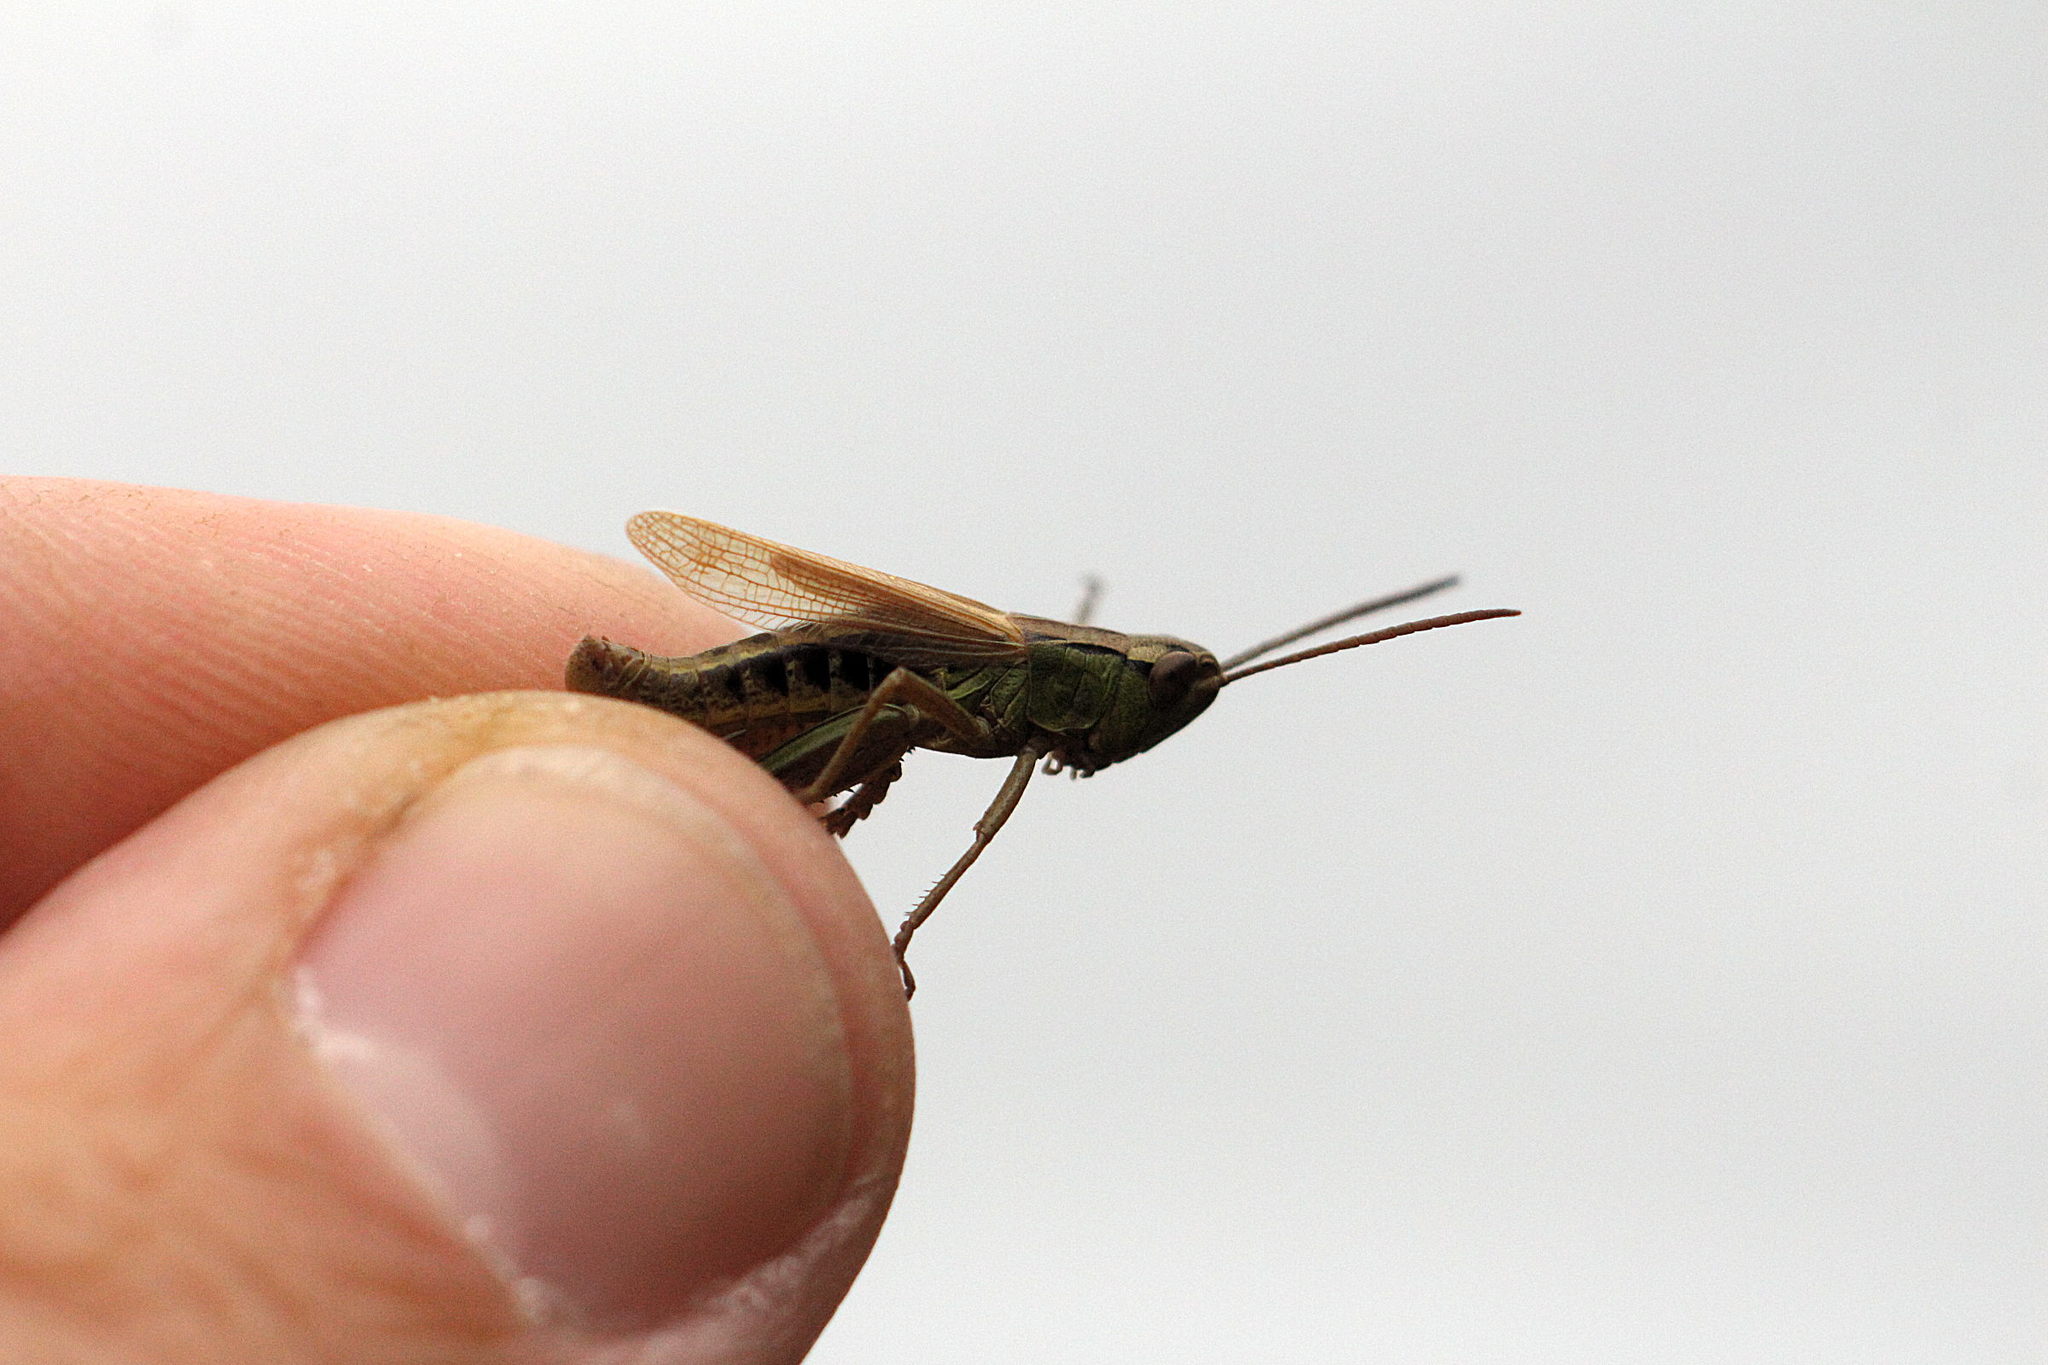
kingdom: Animalia
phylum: Arthropoda
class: Insecta
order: Orthoptera
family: Acrididae
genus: Pseudochorthippus
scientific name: Pseudochorthippus parallelus
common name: Meadow grasshopper
